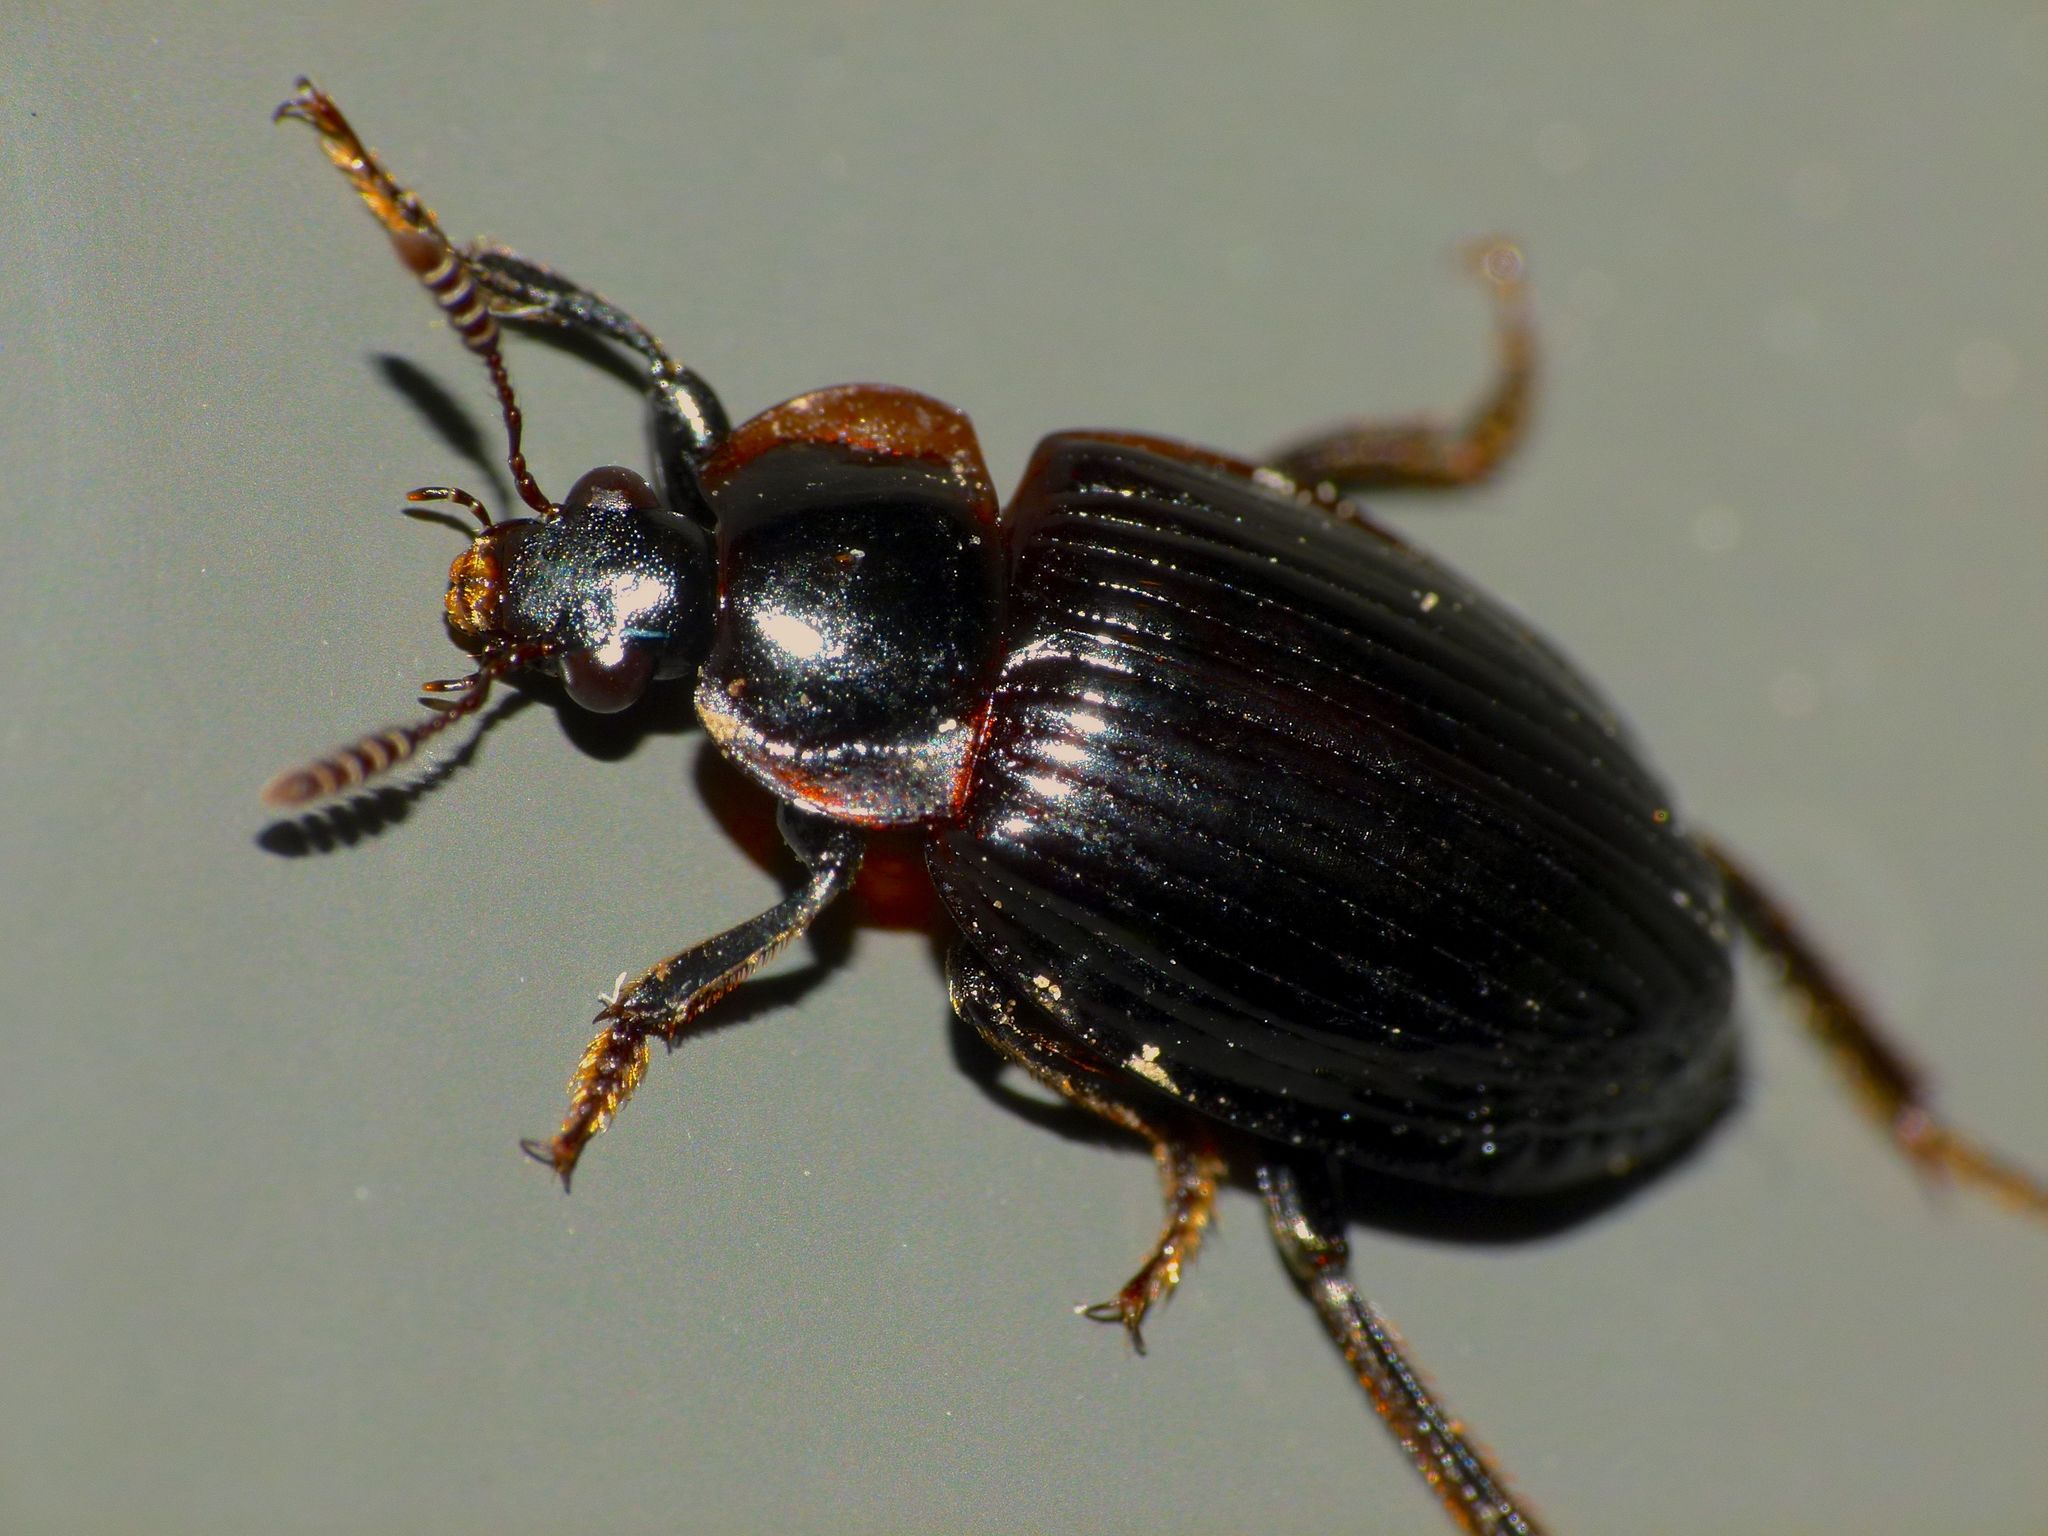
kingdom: Animalia
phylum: Arthropoda
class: Insecta
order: Coleoptera
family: Agyrtidae
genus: Zeanecrophilus
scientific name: Zeanecrophilus prolongatus
